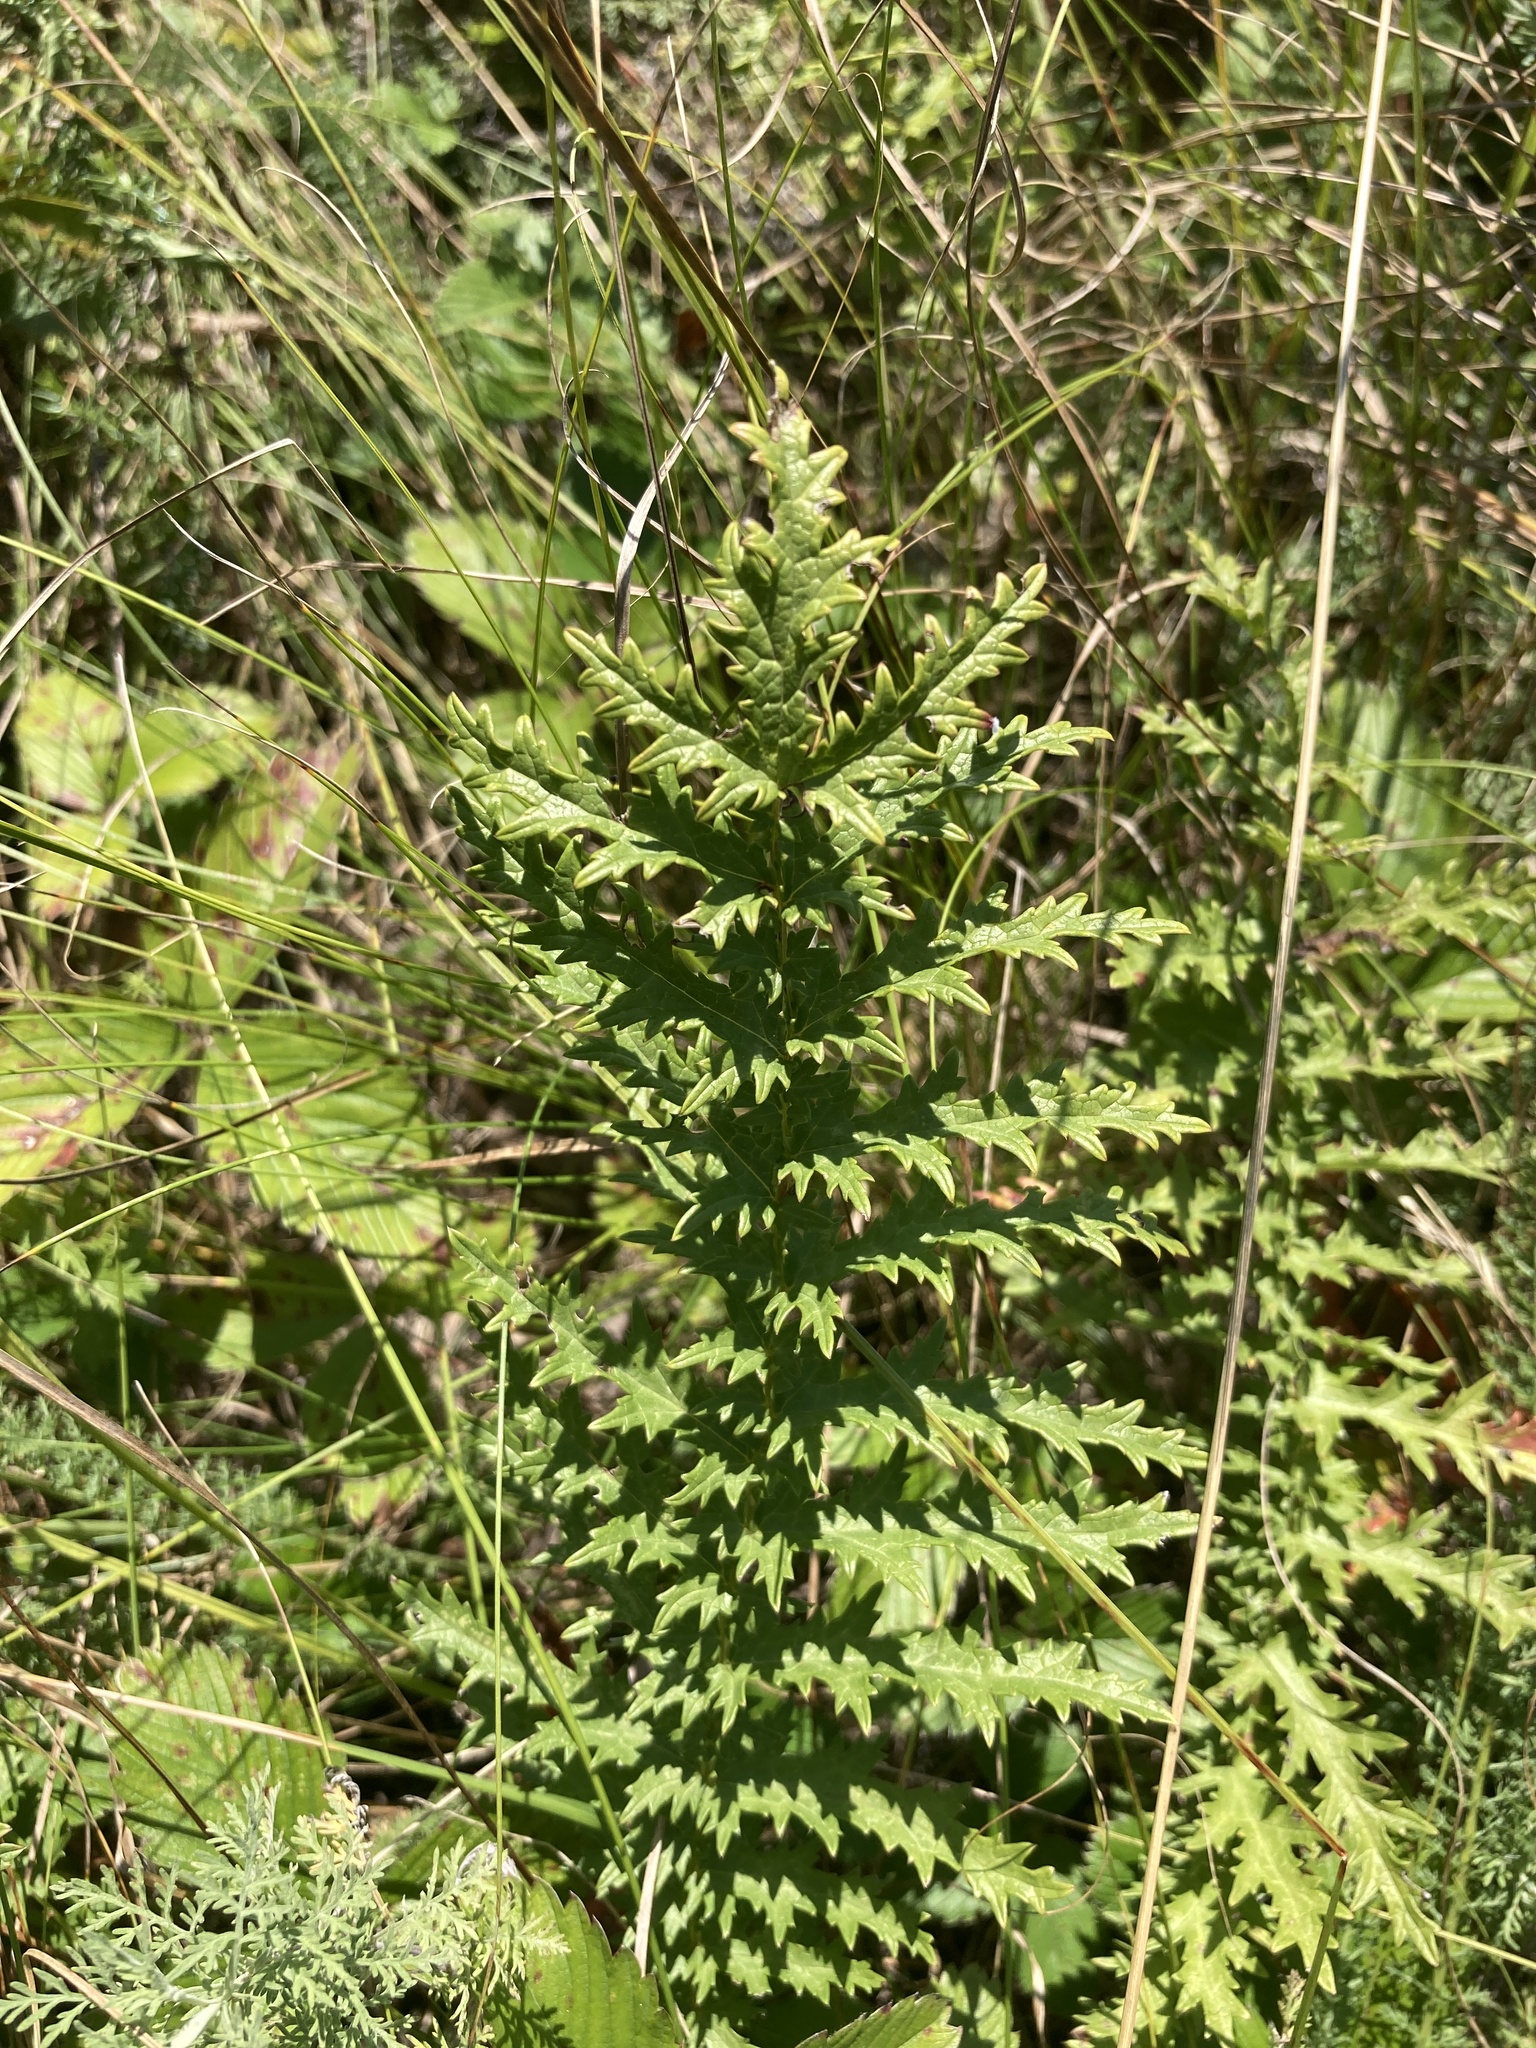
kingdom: Plantae
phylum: Tracheophyta
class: Magnoliopsida
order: Rosales
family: Rosaceae
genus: Filipendula
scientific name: Filipendula vulgaris
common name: Dropwort
